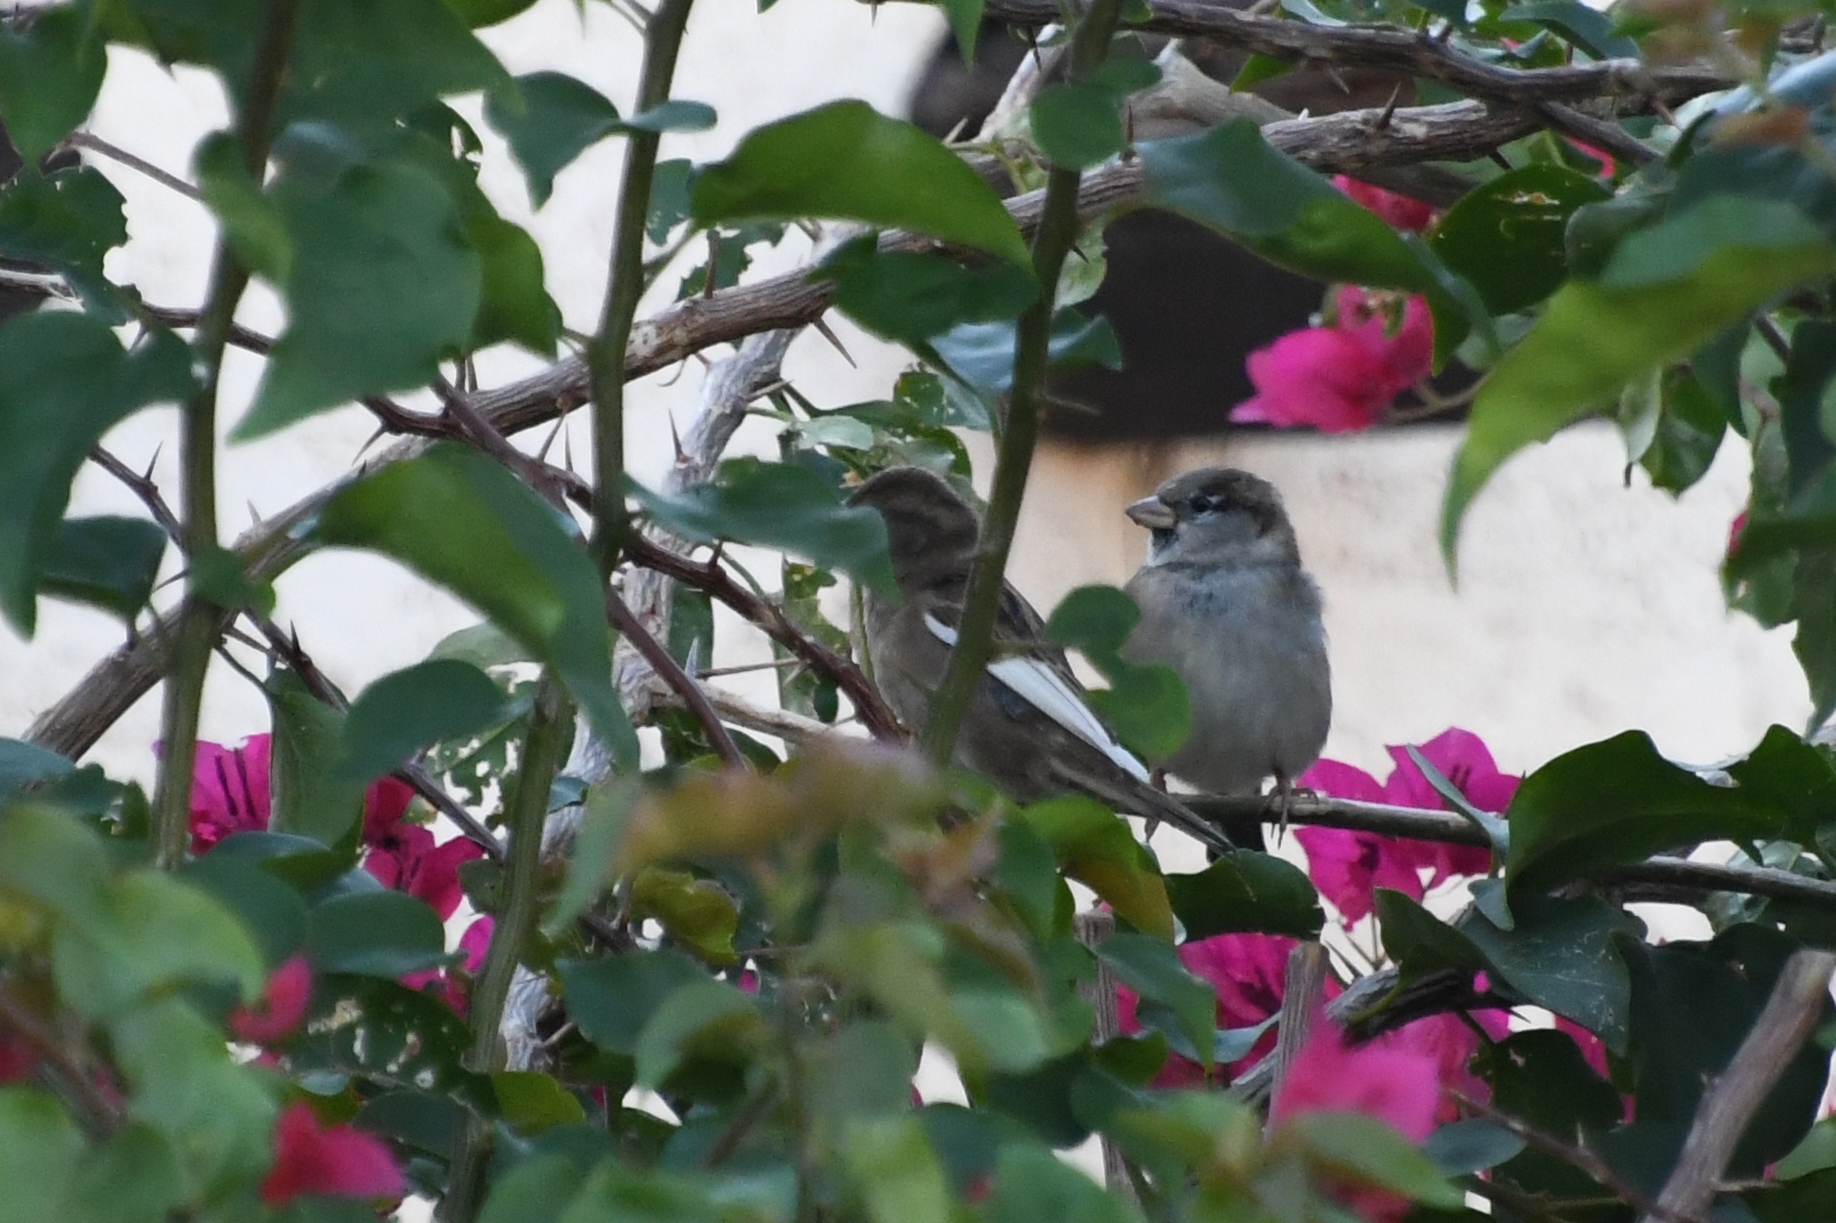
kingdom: Animalia
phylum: Chordata
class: Aves
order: Passeriformes
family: Passeridae
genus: Passer
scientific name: Passer domesticus
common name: House sparrow
